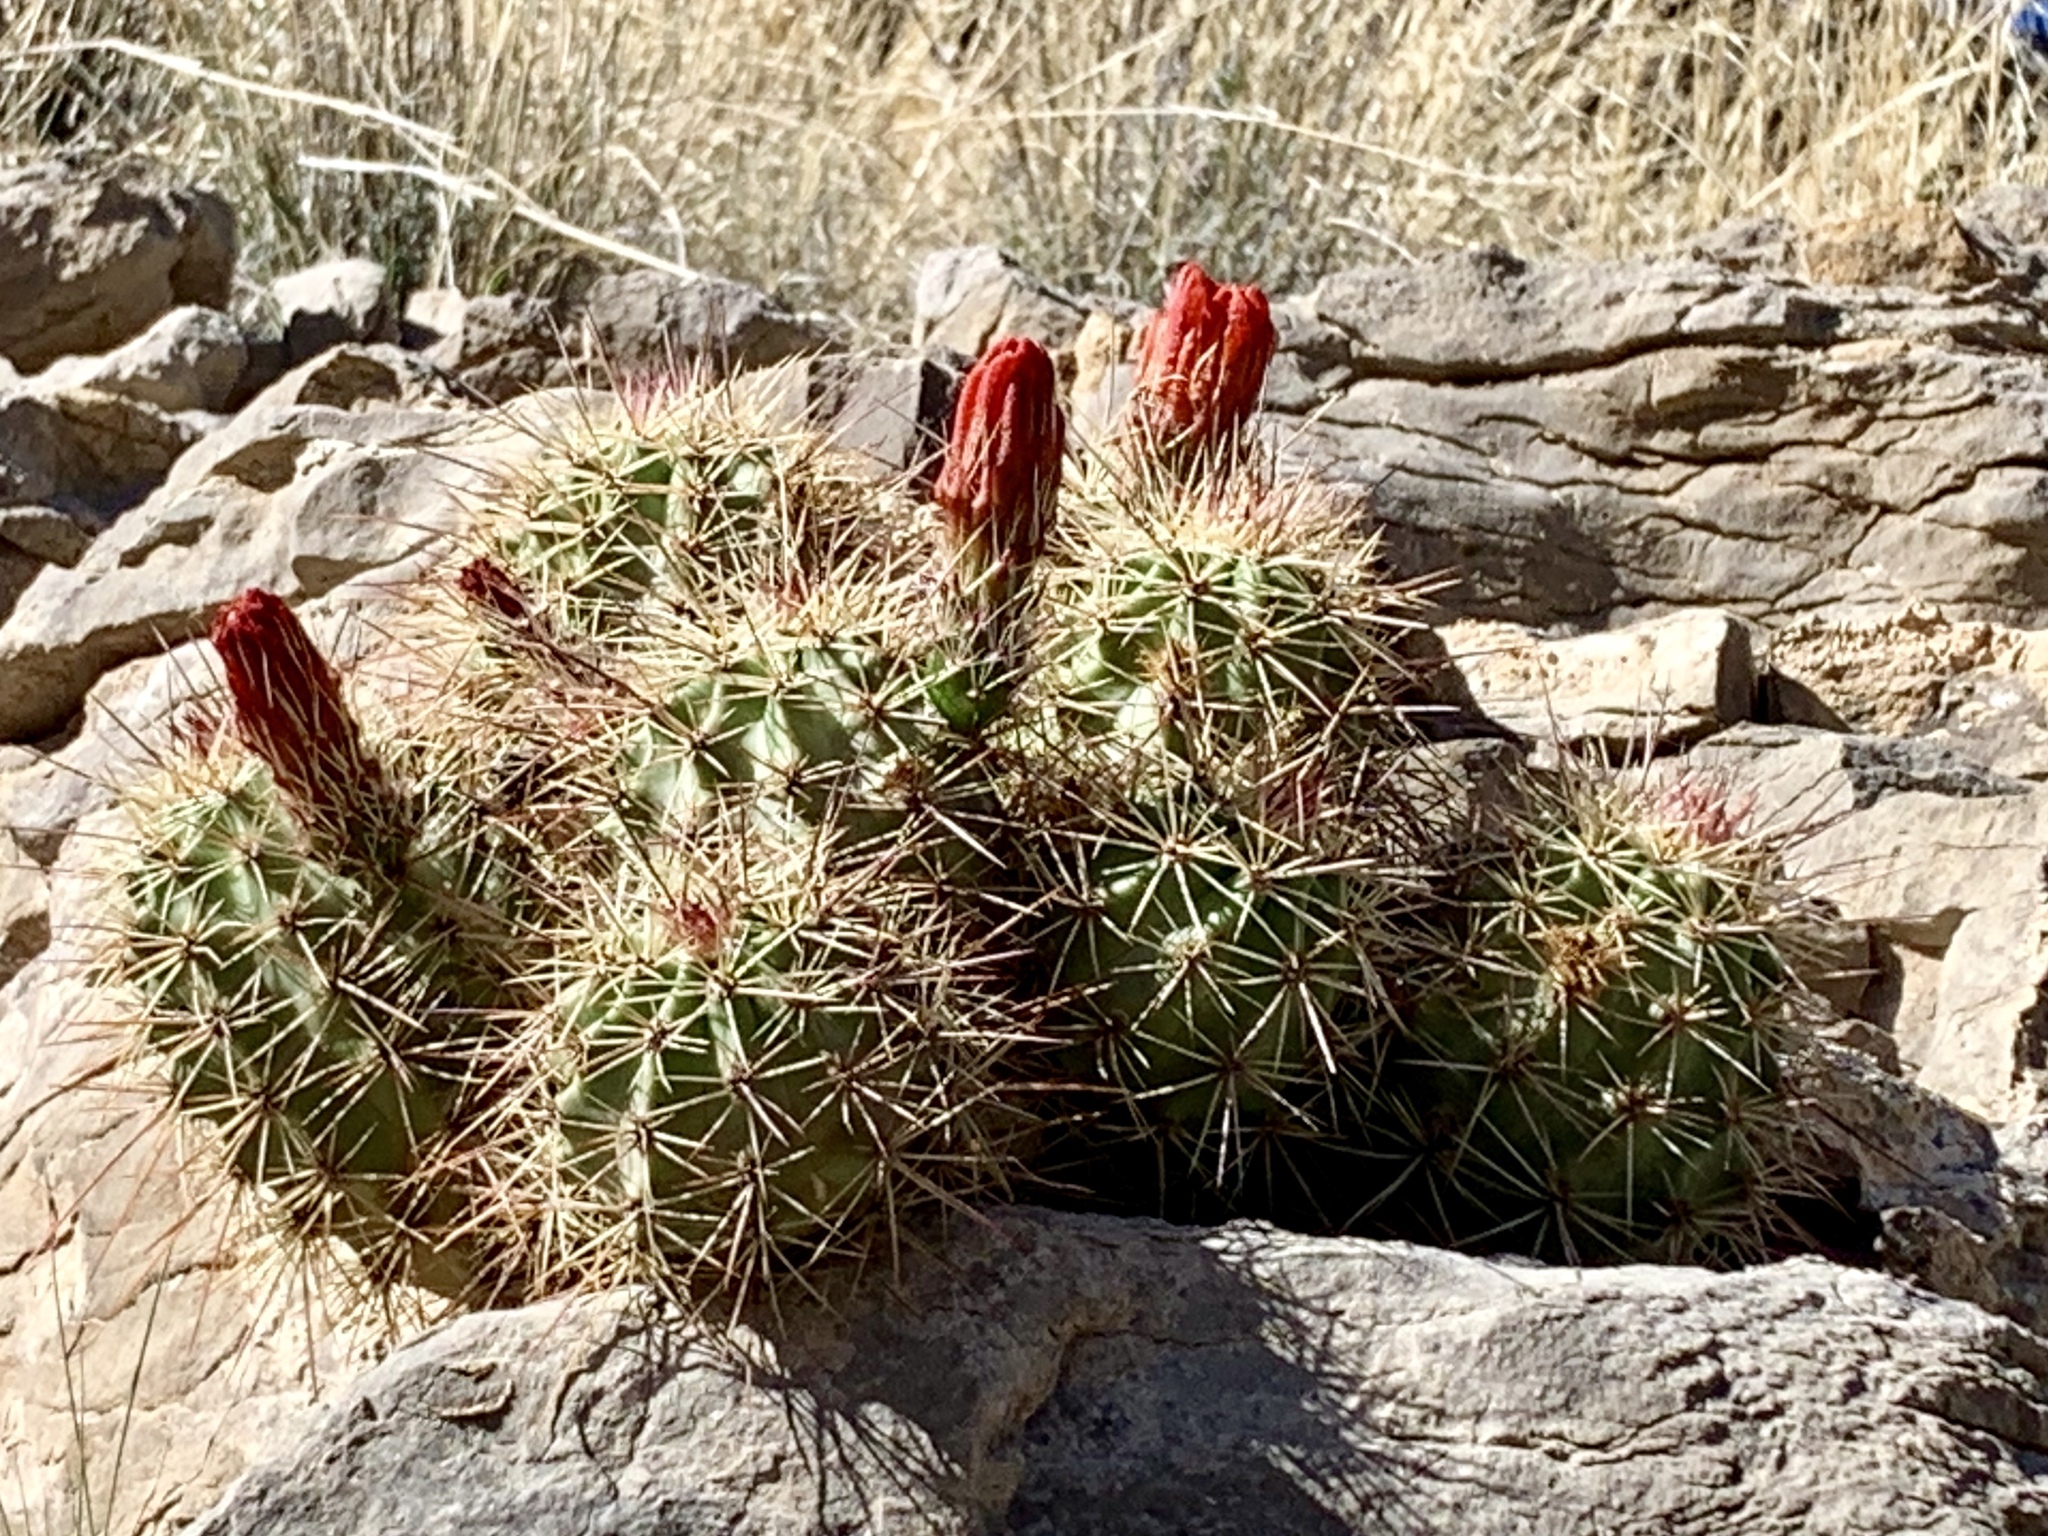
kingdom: Plantae
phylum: Tracheophyta
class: Magnoliopsida
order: Caryophyllales
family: Cactaceae
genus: Echinocereus
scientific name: Echinocereus coccineus
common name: Scarlet hedgehog cactus
